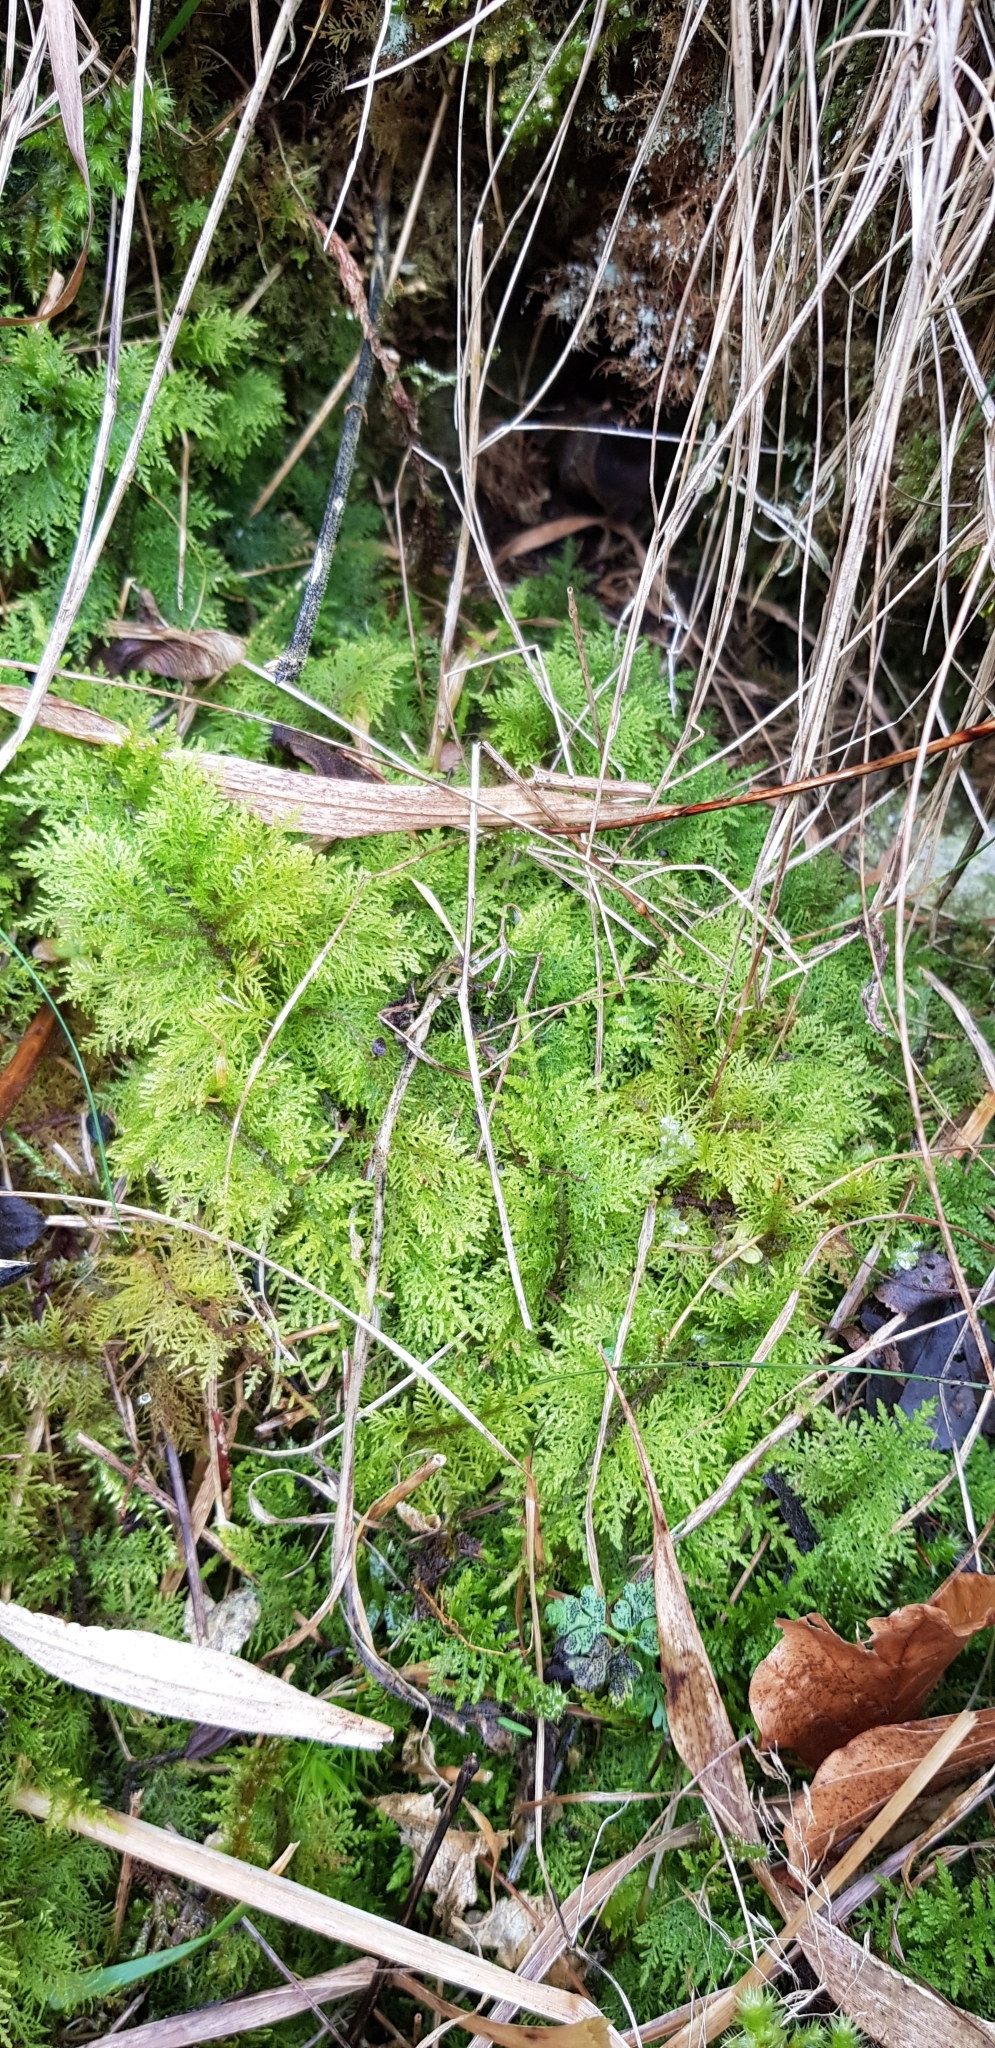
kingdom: Plantae
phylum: Bryophyta
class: Bryopsida
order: Hypnales
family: Thuidiaceae
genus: Thuidium
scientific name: Thuidium tamariscinum
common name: Common tamarisk-moss
